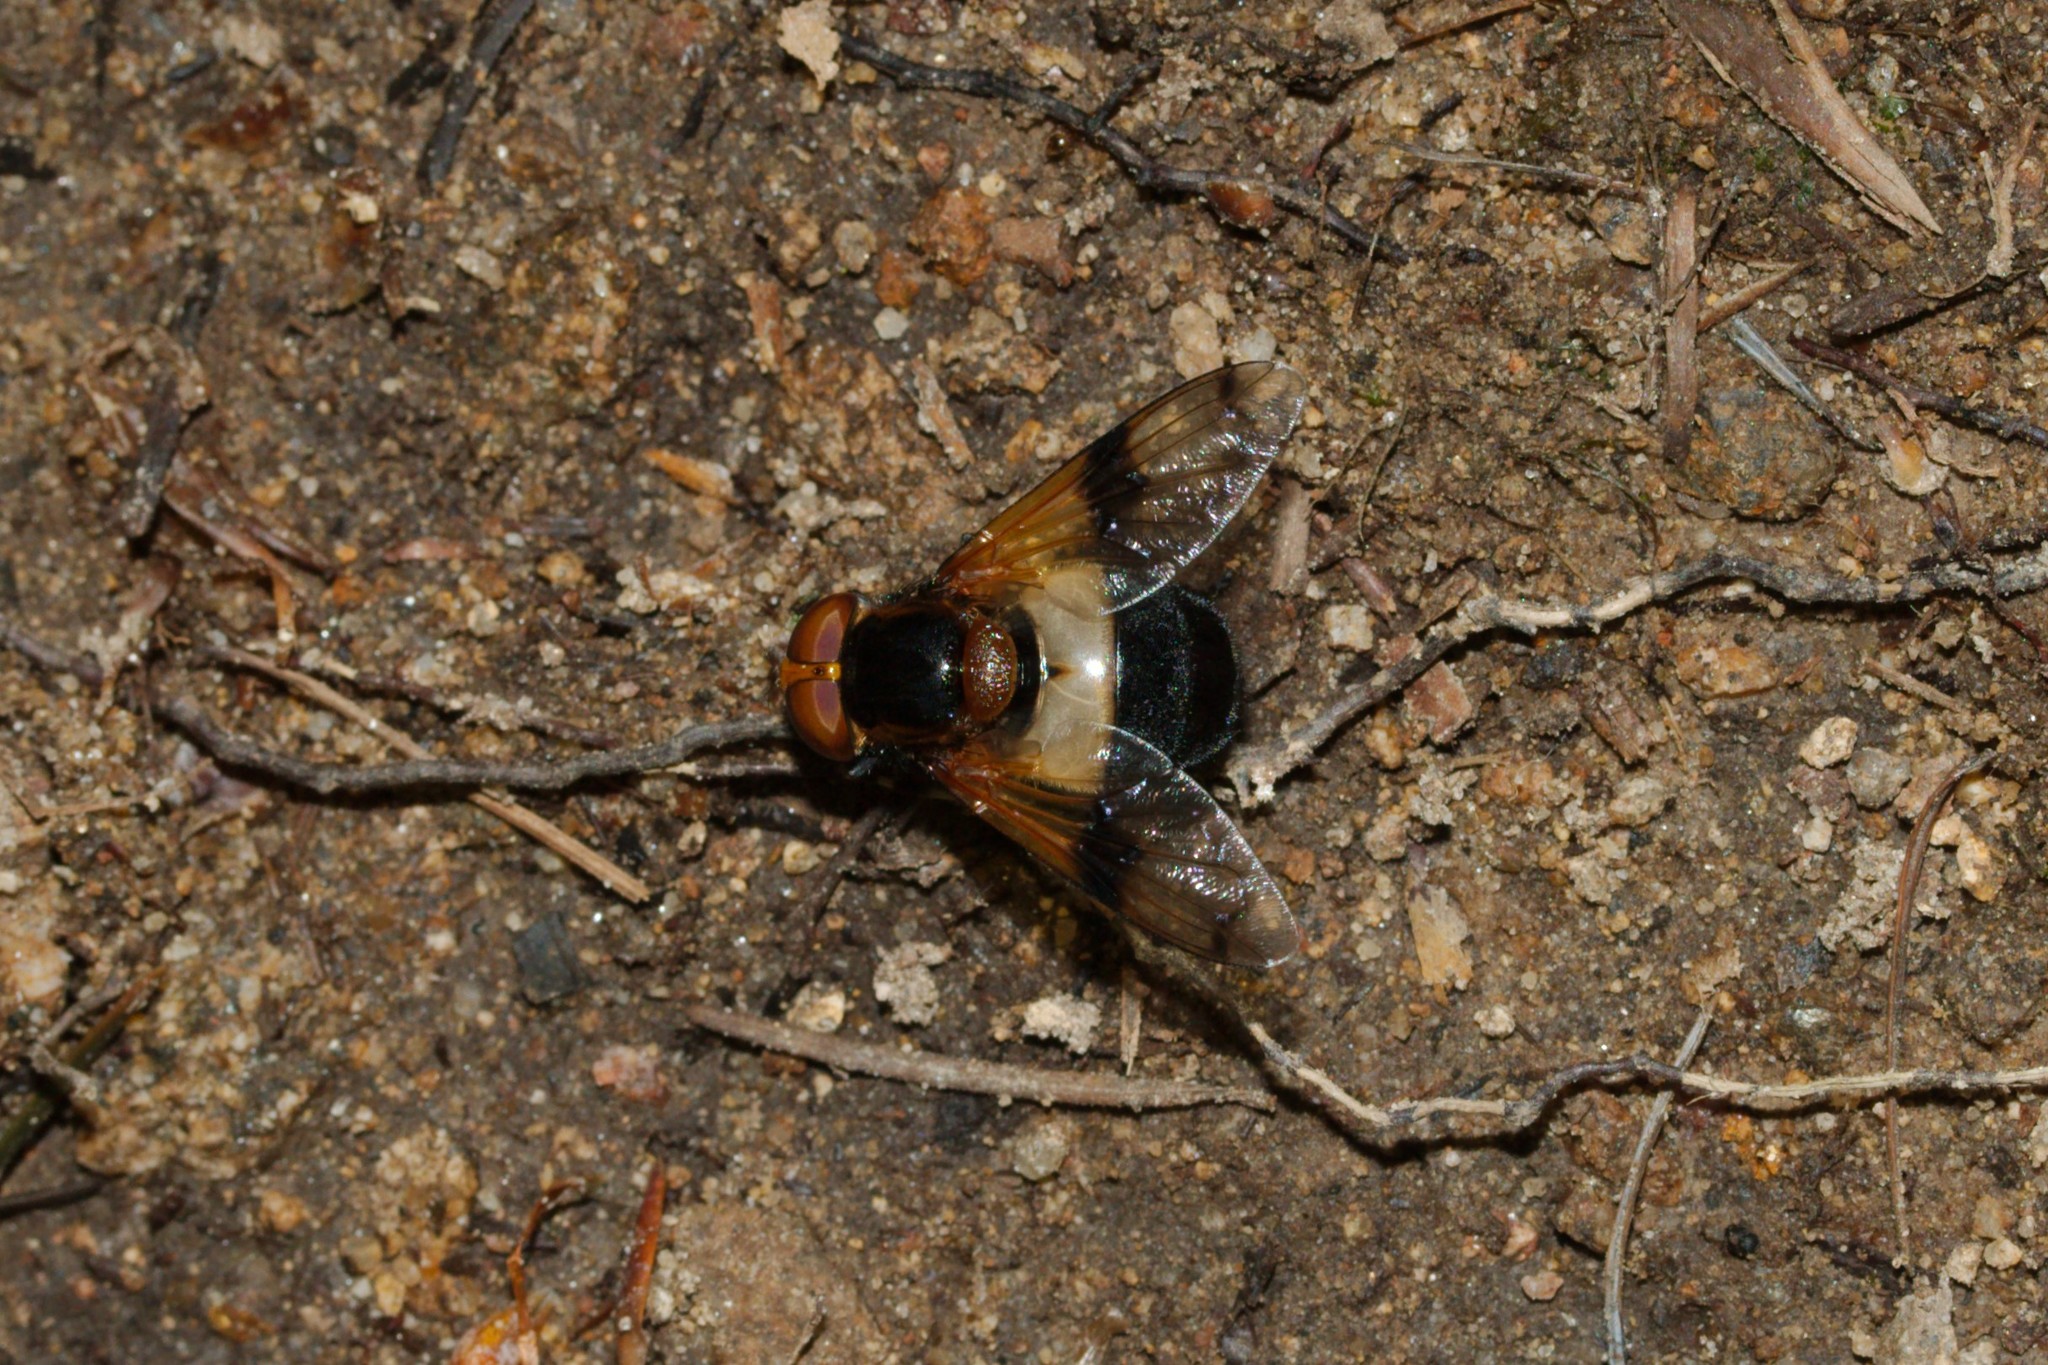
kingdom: Animalia
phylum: Arthropoda
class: Insecta
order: Diptera
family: Syrphidae
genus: Volucella
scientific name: Volucella pellucens
